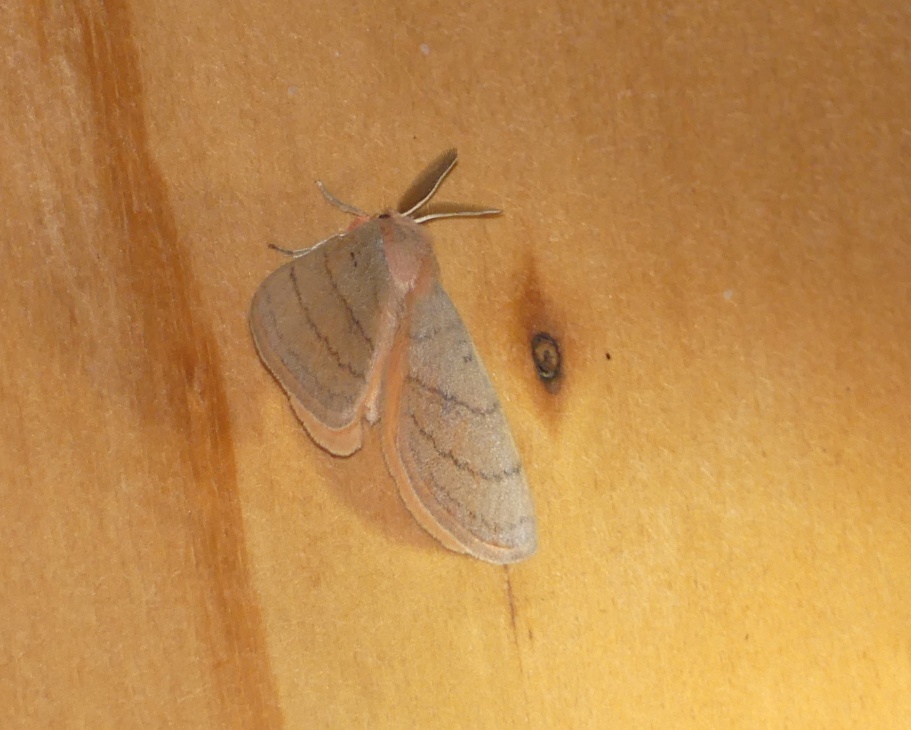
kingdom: Animalia
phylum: Arthropoda
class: Insecta
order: Lepidoptera
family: Eupterotidae
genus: Hemijana
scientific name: Hemijana subrosea
